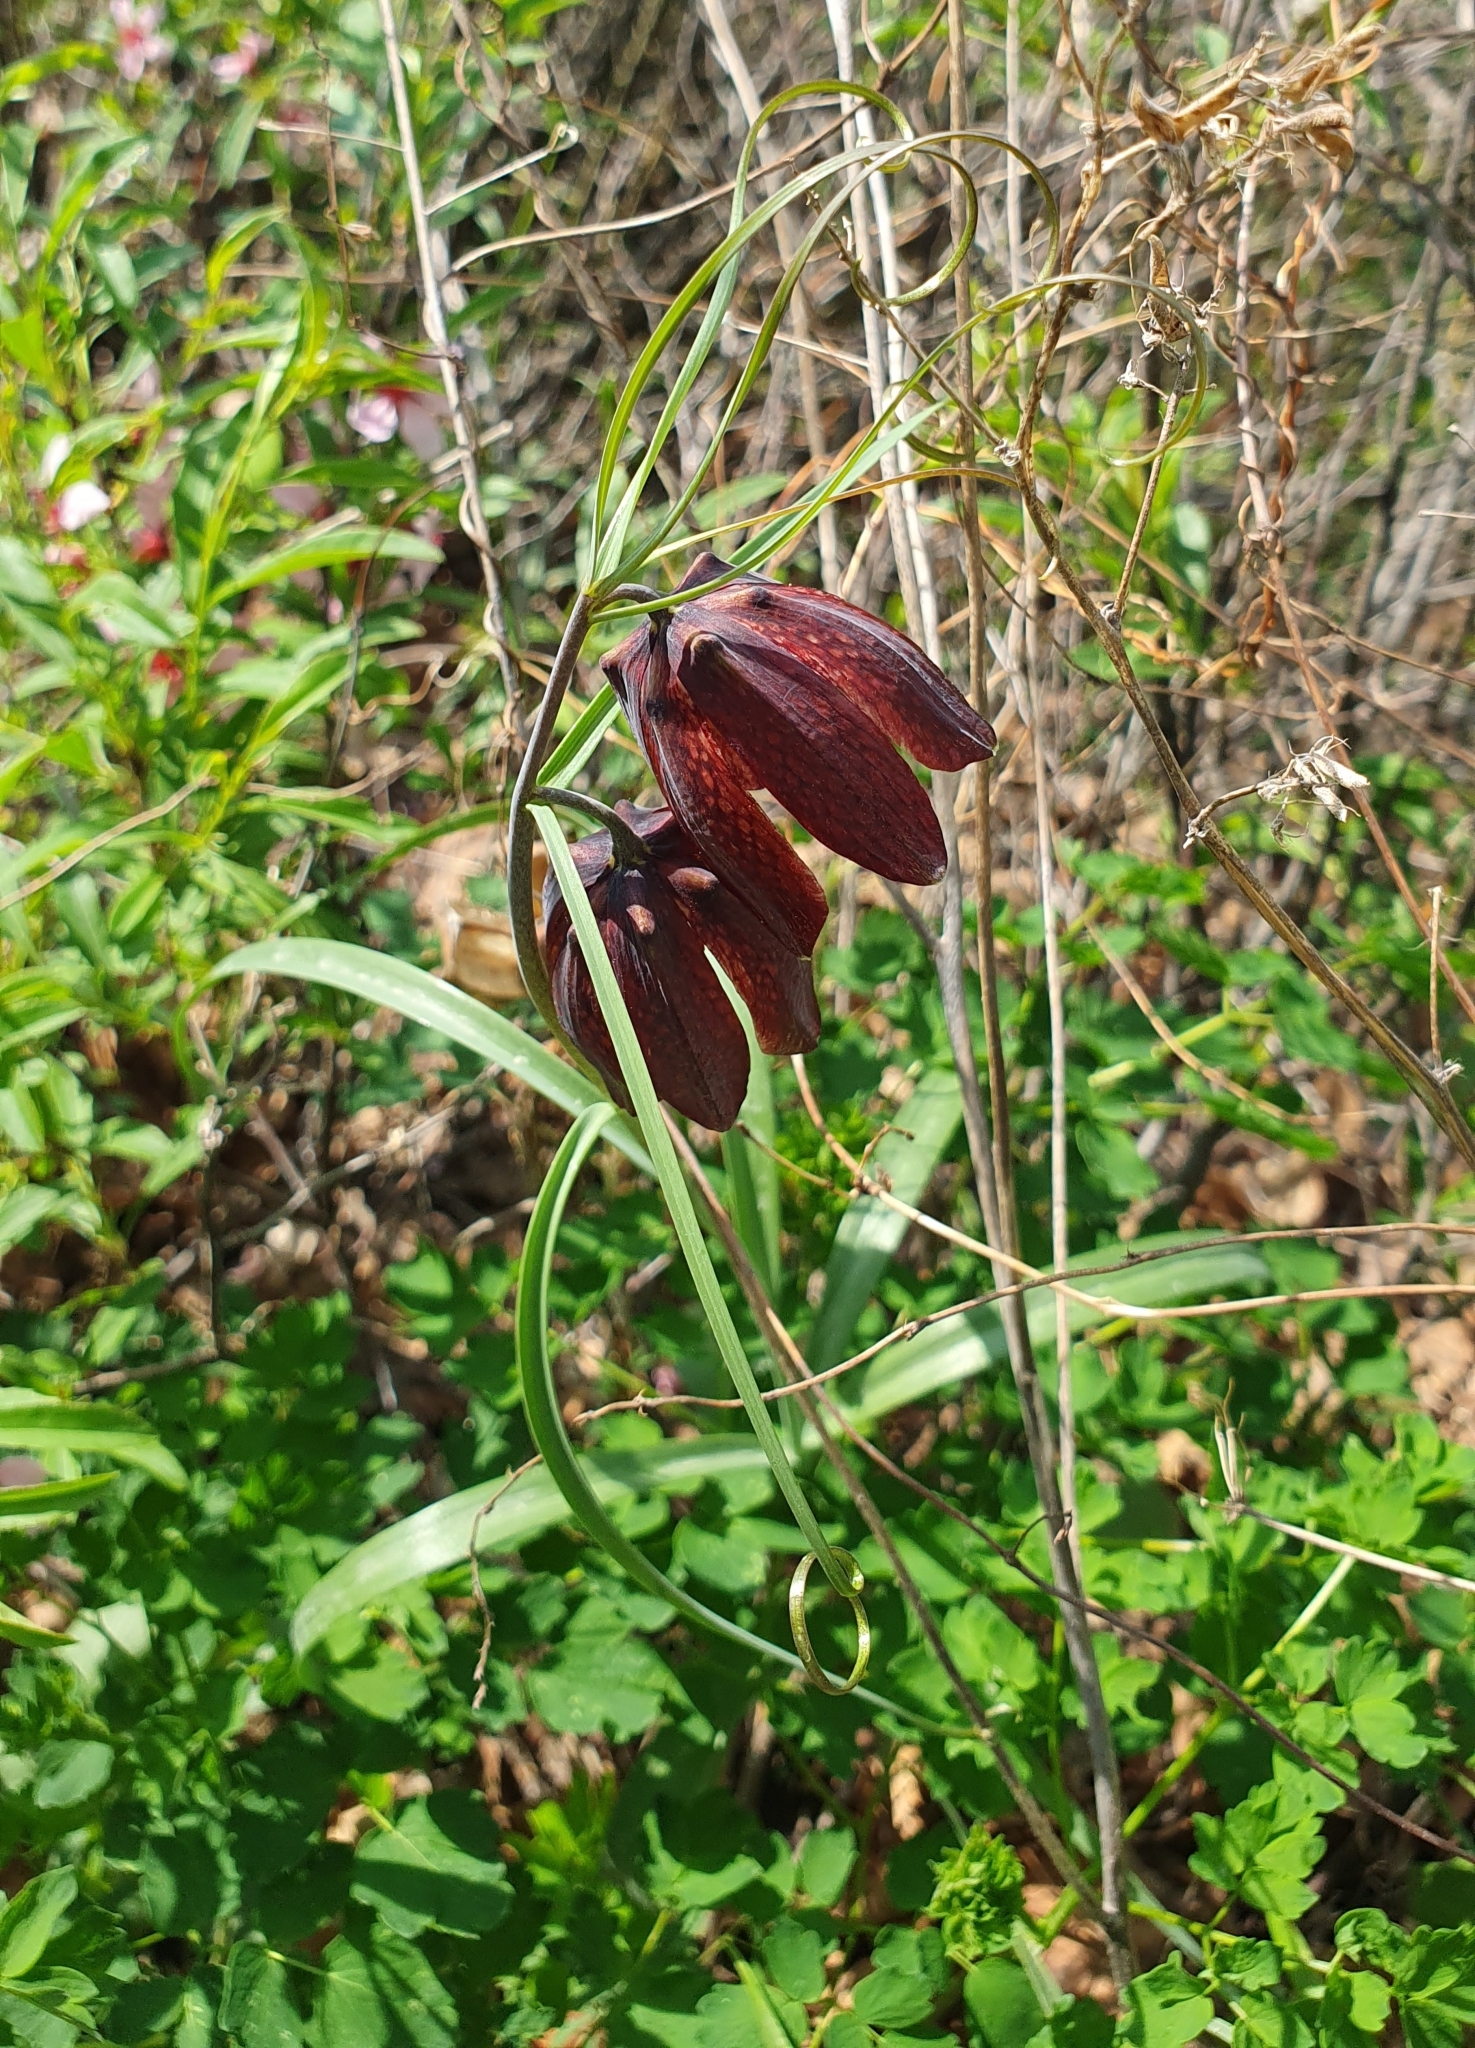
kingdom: Plantae
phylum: Tracheophyta
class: Liliopsida
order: Liliales
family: Liliaceae
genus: Fritillaria
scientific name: Fritillaria ruthenica
